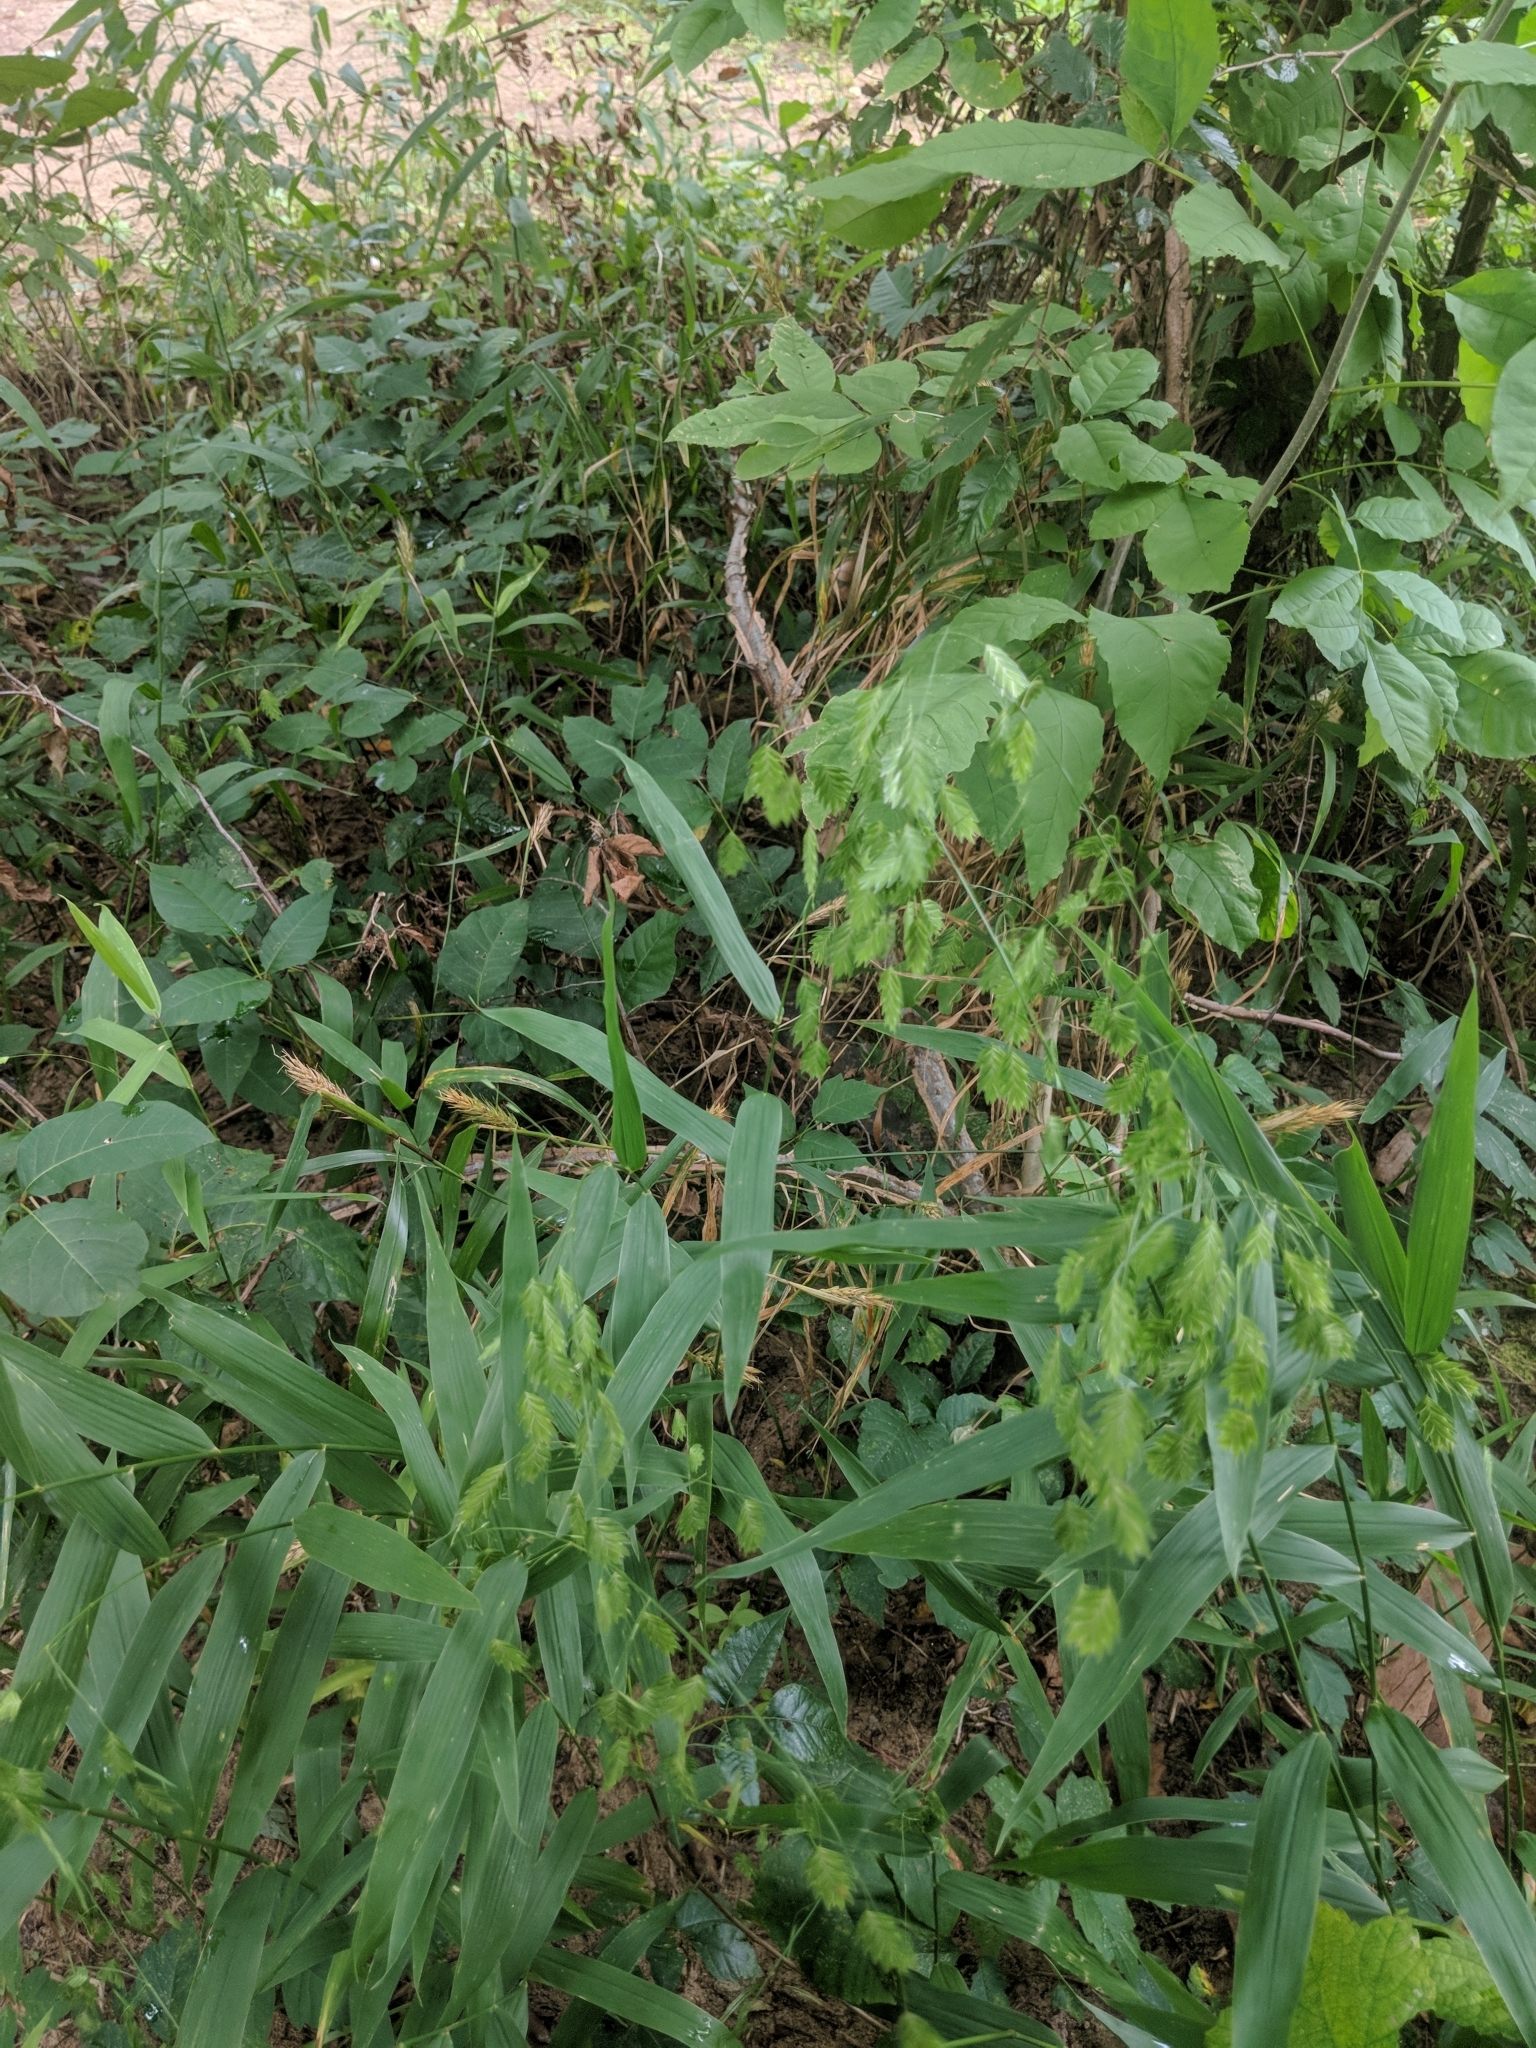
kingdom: Plantae
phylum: Tracheophyta
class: Liliopsida
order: Poales
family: Poaceae
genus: Chasmanthium
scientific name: Chasmanthium latifolium
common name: Broad-leaved chasmanthium
